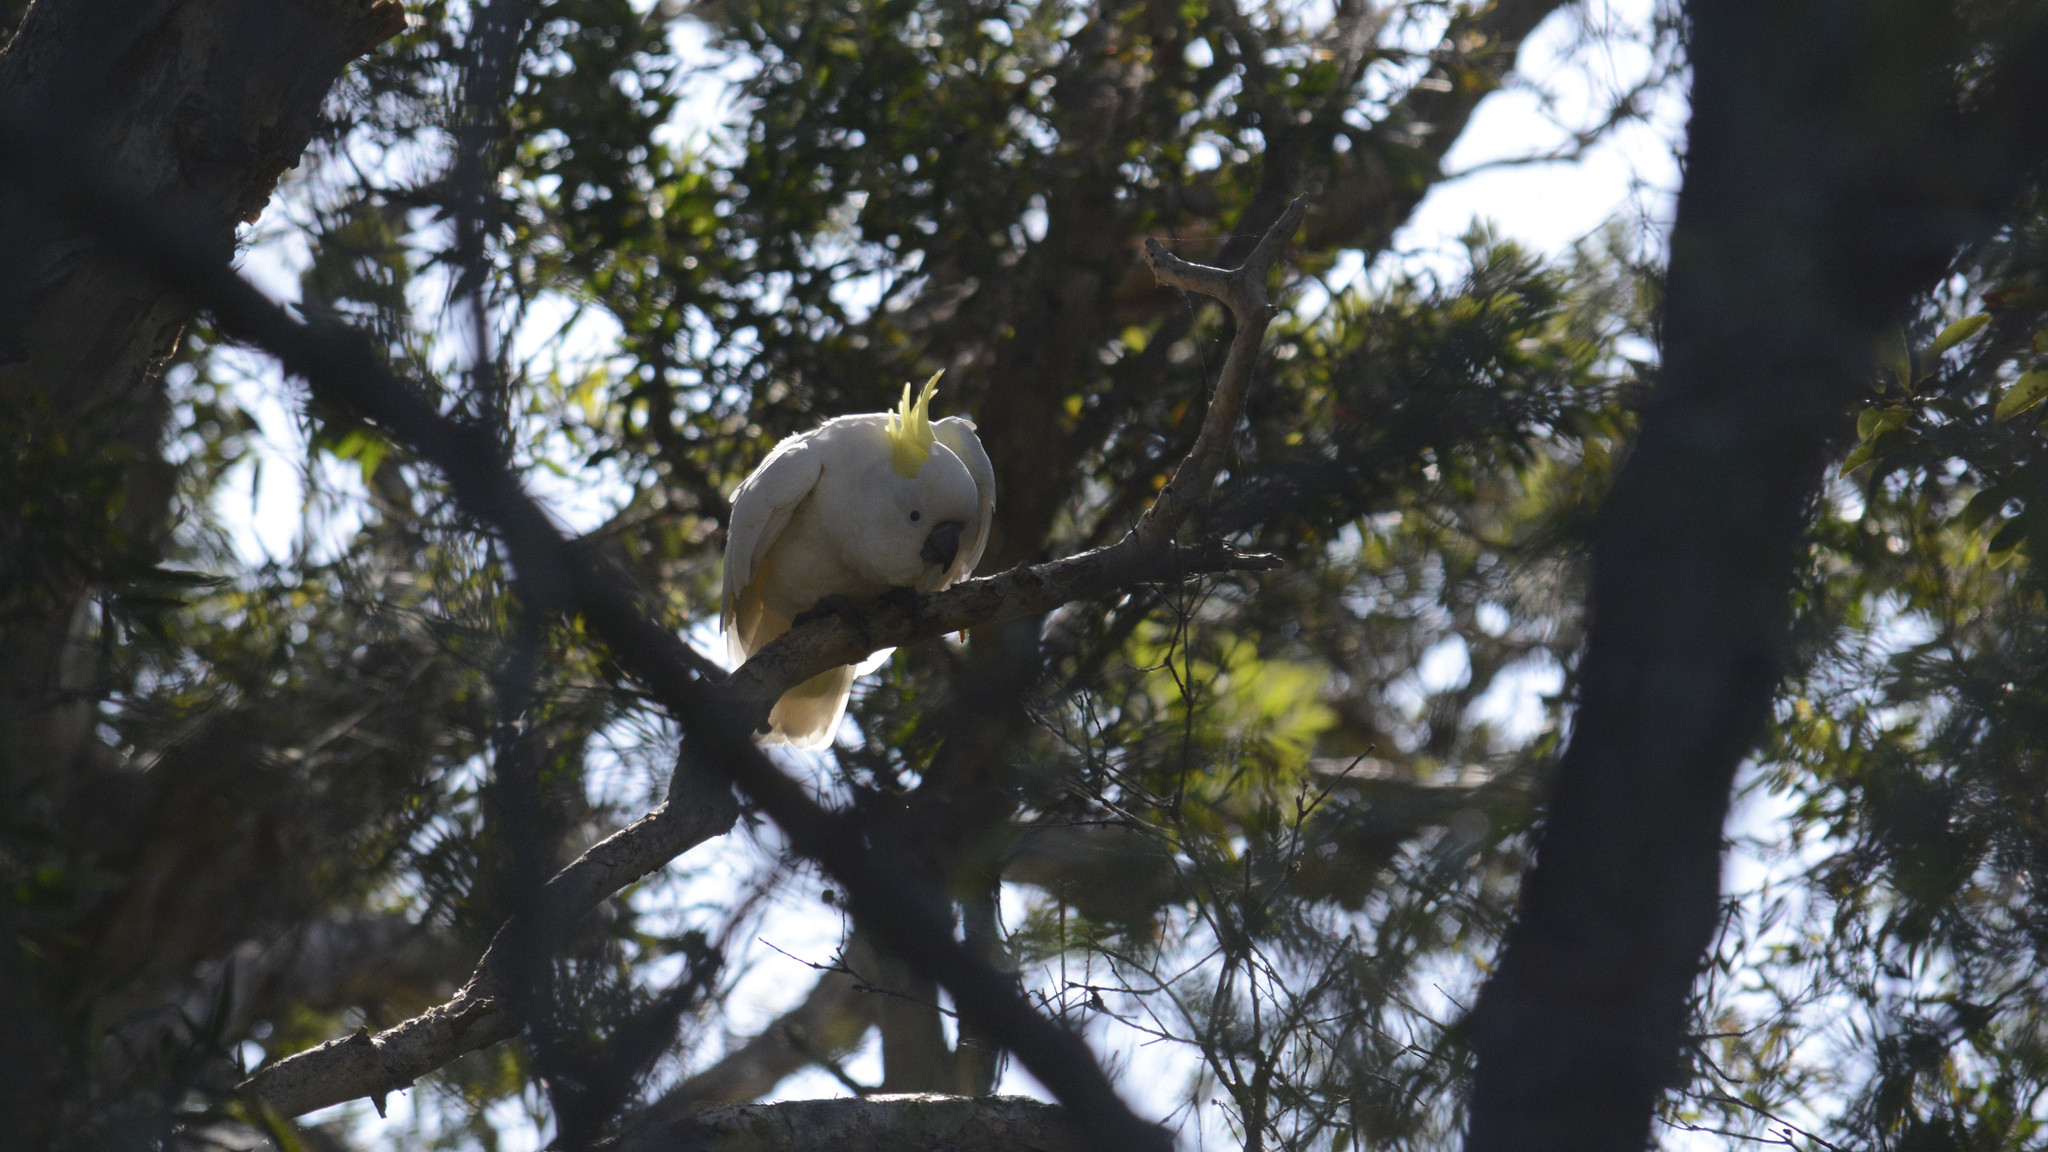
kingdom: Animalia
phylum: Chordata
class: Aves
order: Psittaciformes
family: Psittacidae
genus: Cacatua
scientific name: Cacatua galerita
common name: Sulphur-crested cockatoo
